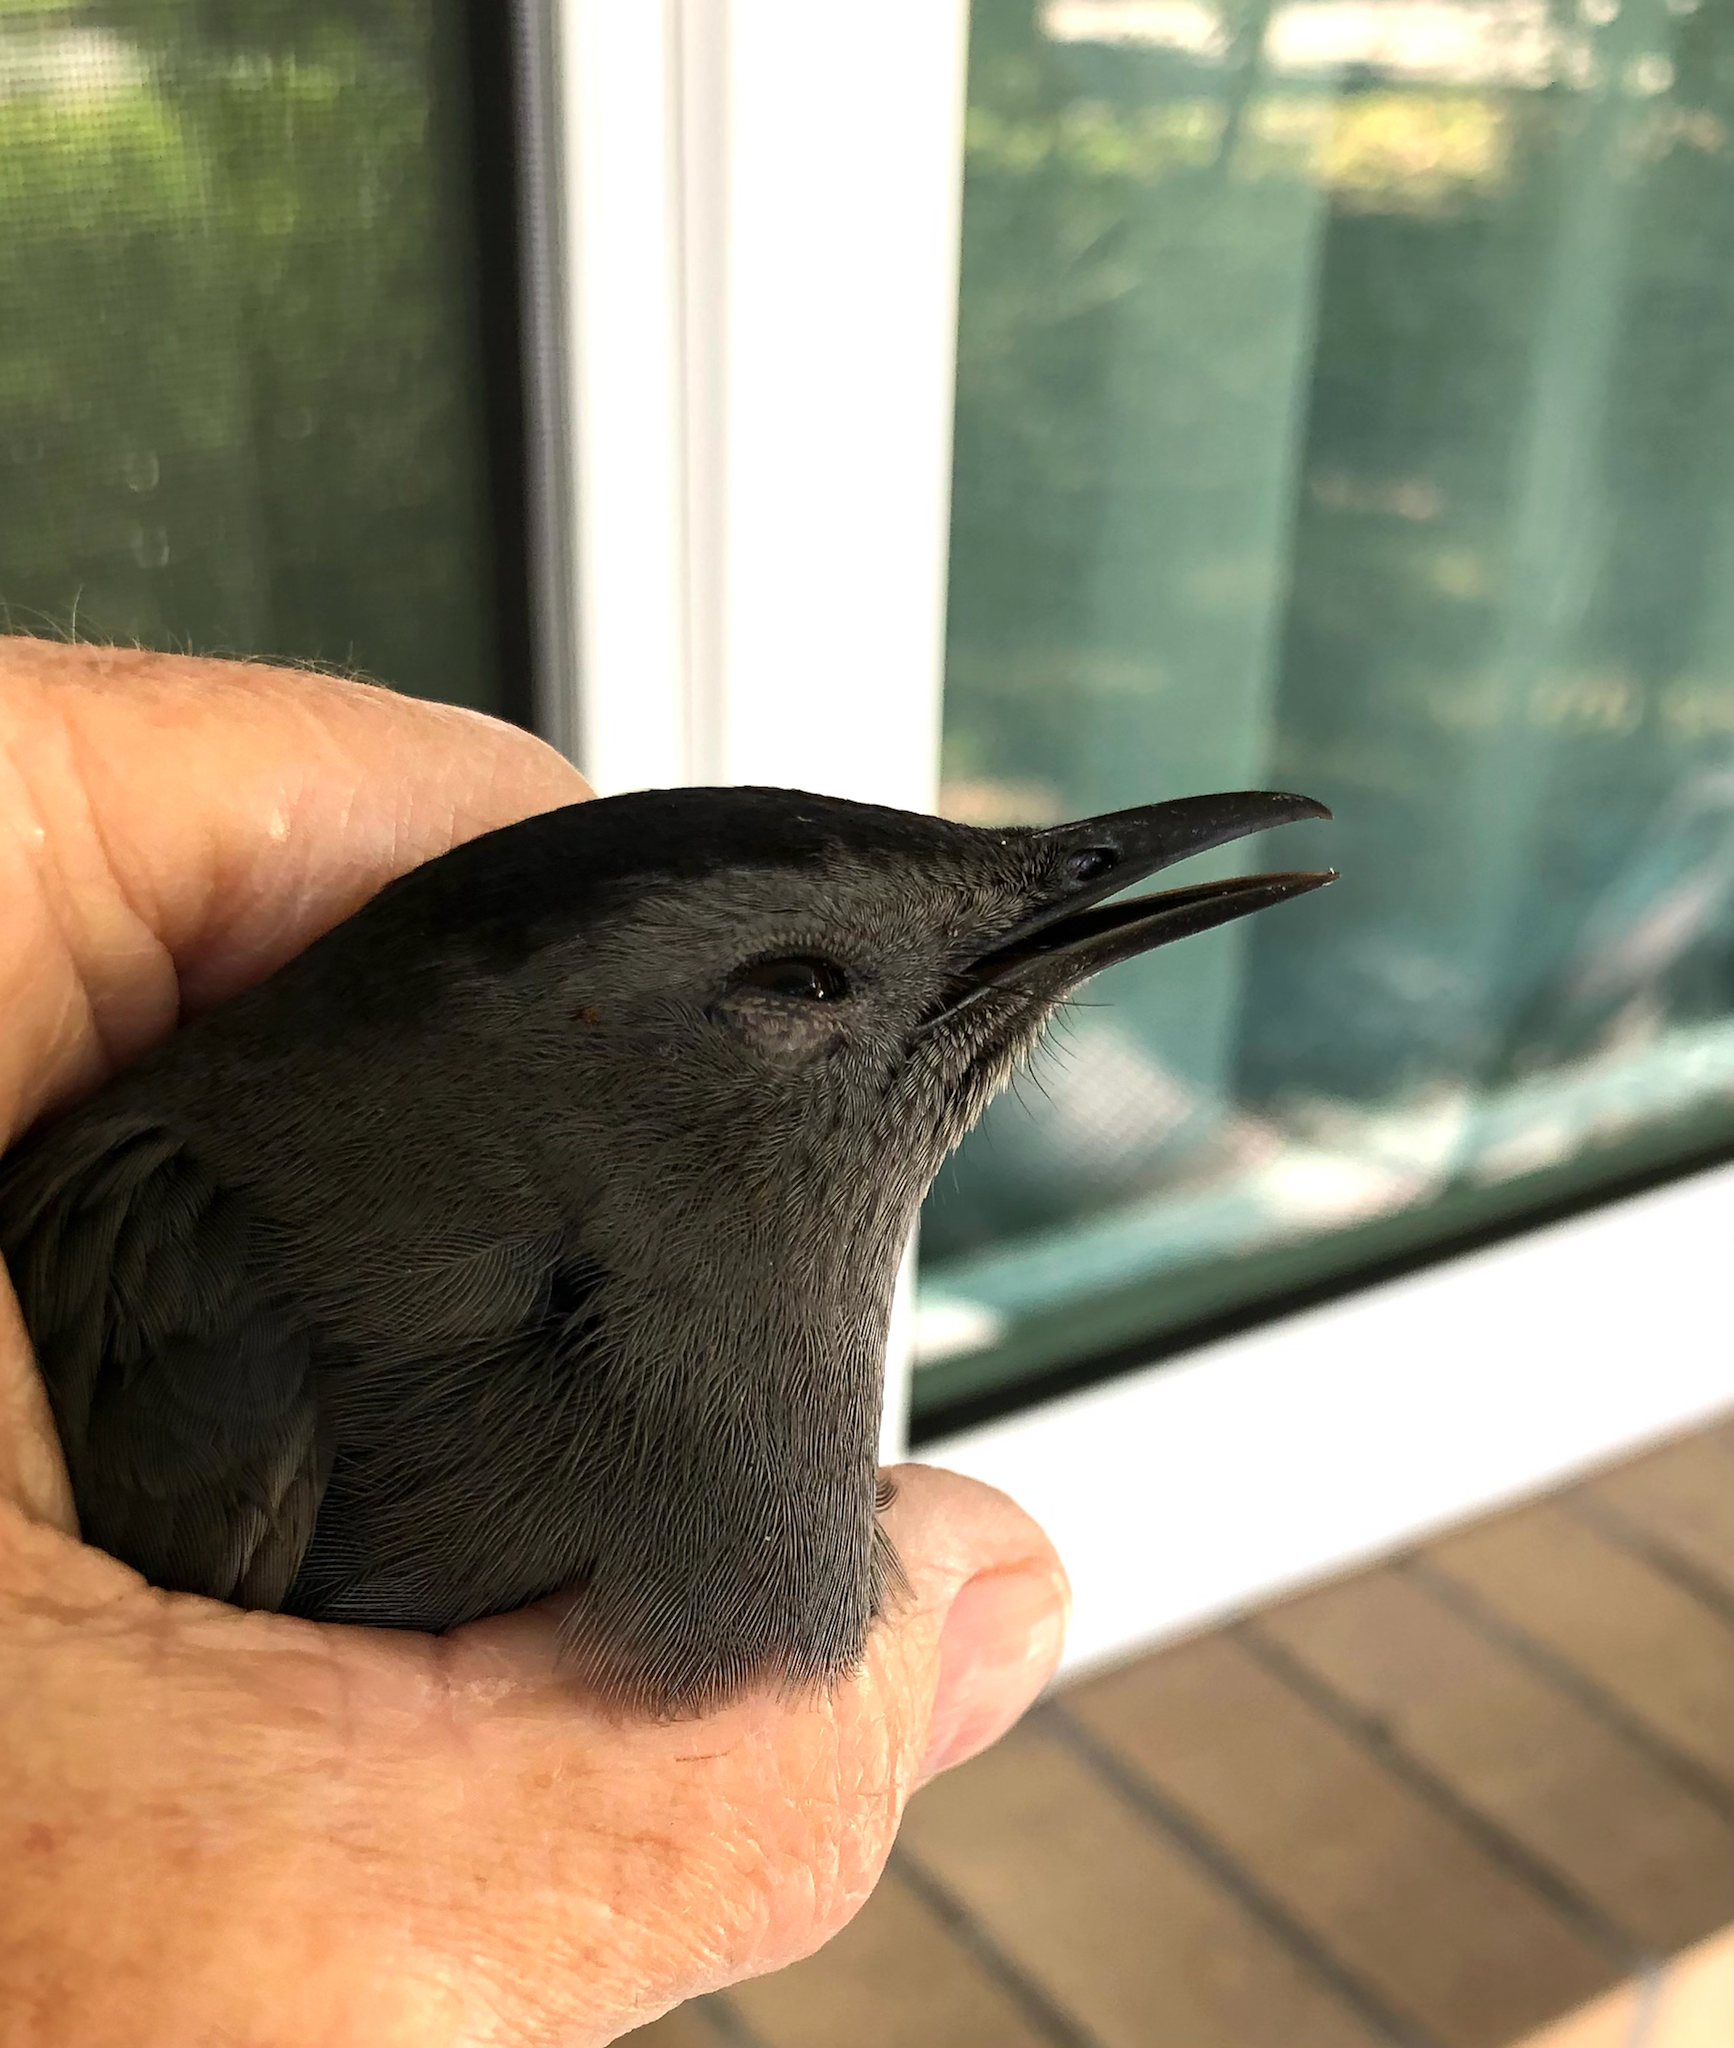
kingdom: Animalia
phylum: Chordata
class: Aves
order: Passeriformes
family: Mimidae
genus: Dumetella
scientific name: Dumetella carolinensis
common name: Gray catbird
